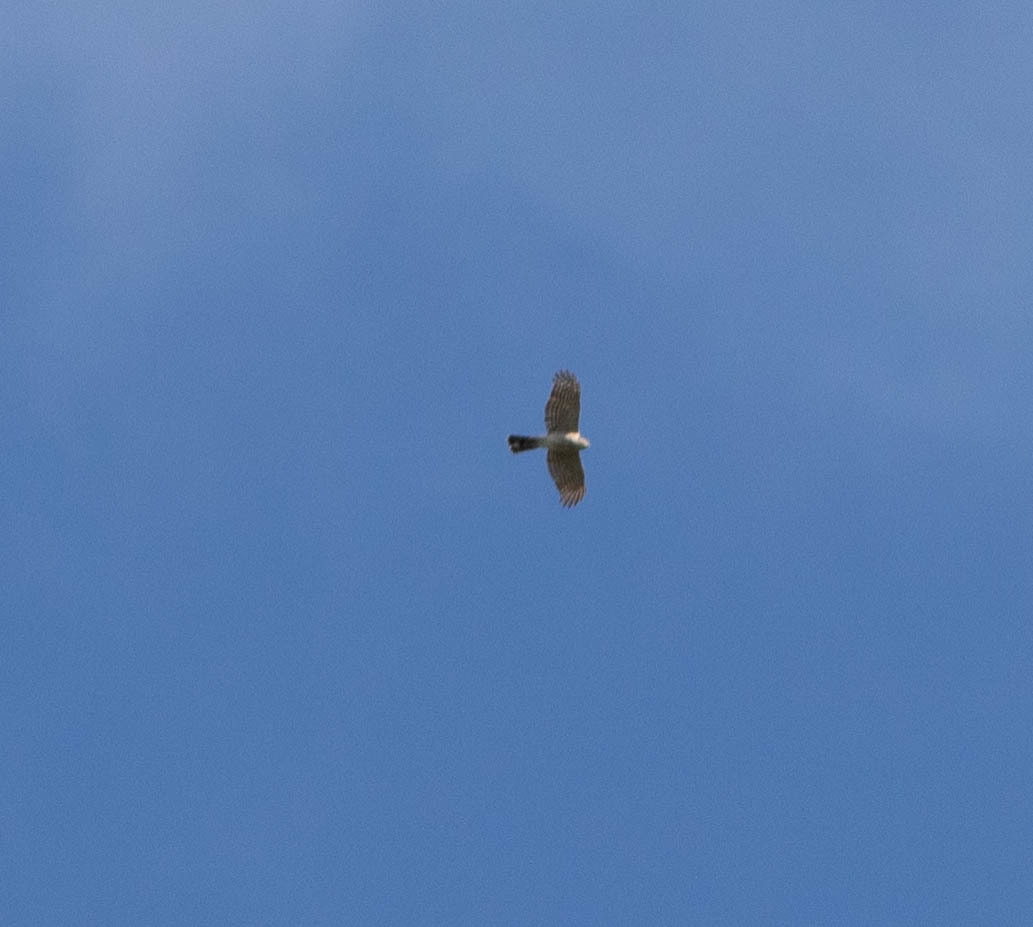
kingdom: Animalia
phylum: Chordata
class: Aves
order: Accipitriformes
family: Accipitridae
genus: Accipiter
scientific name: Accipiter cooperii
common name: Cooper's hawk
